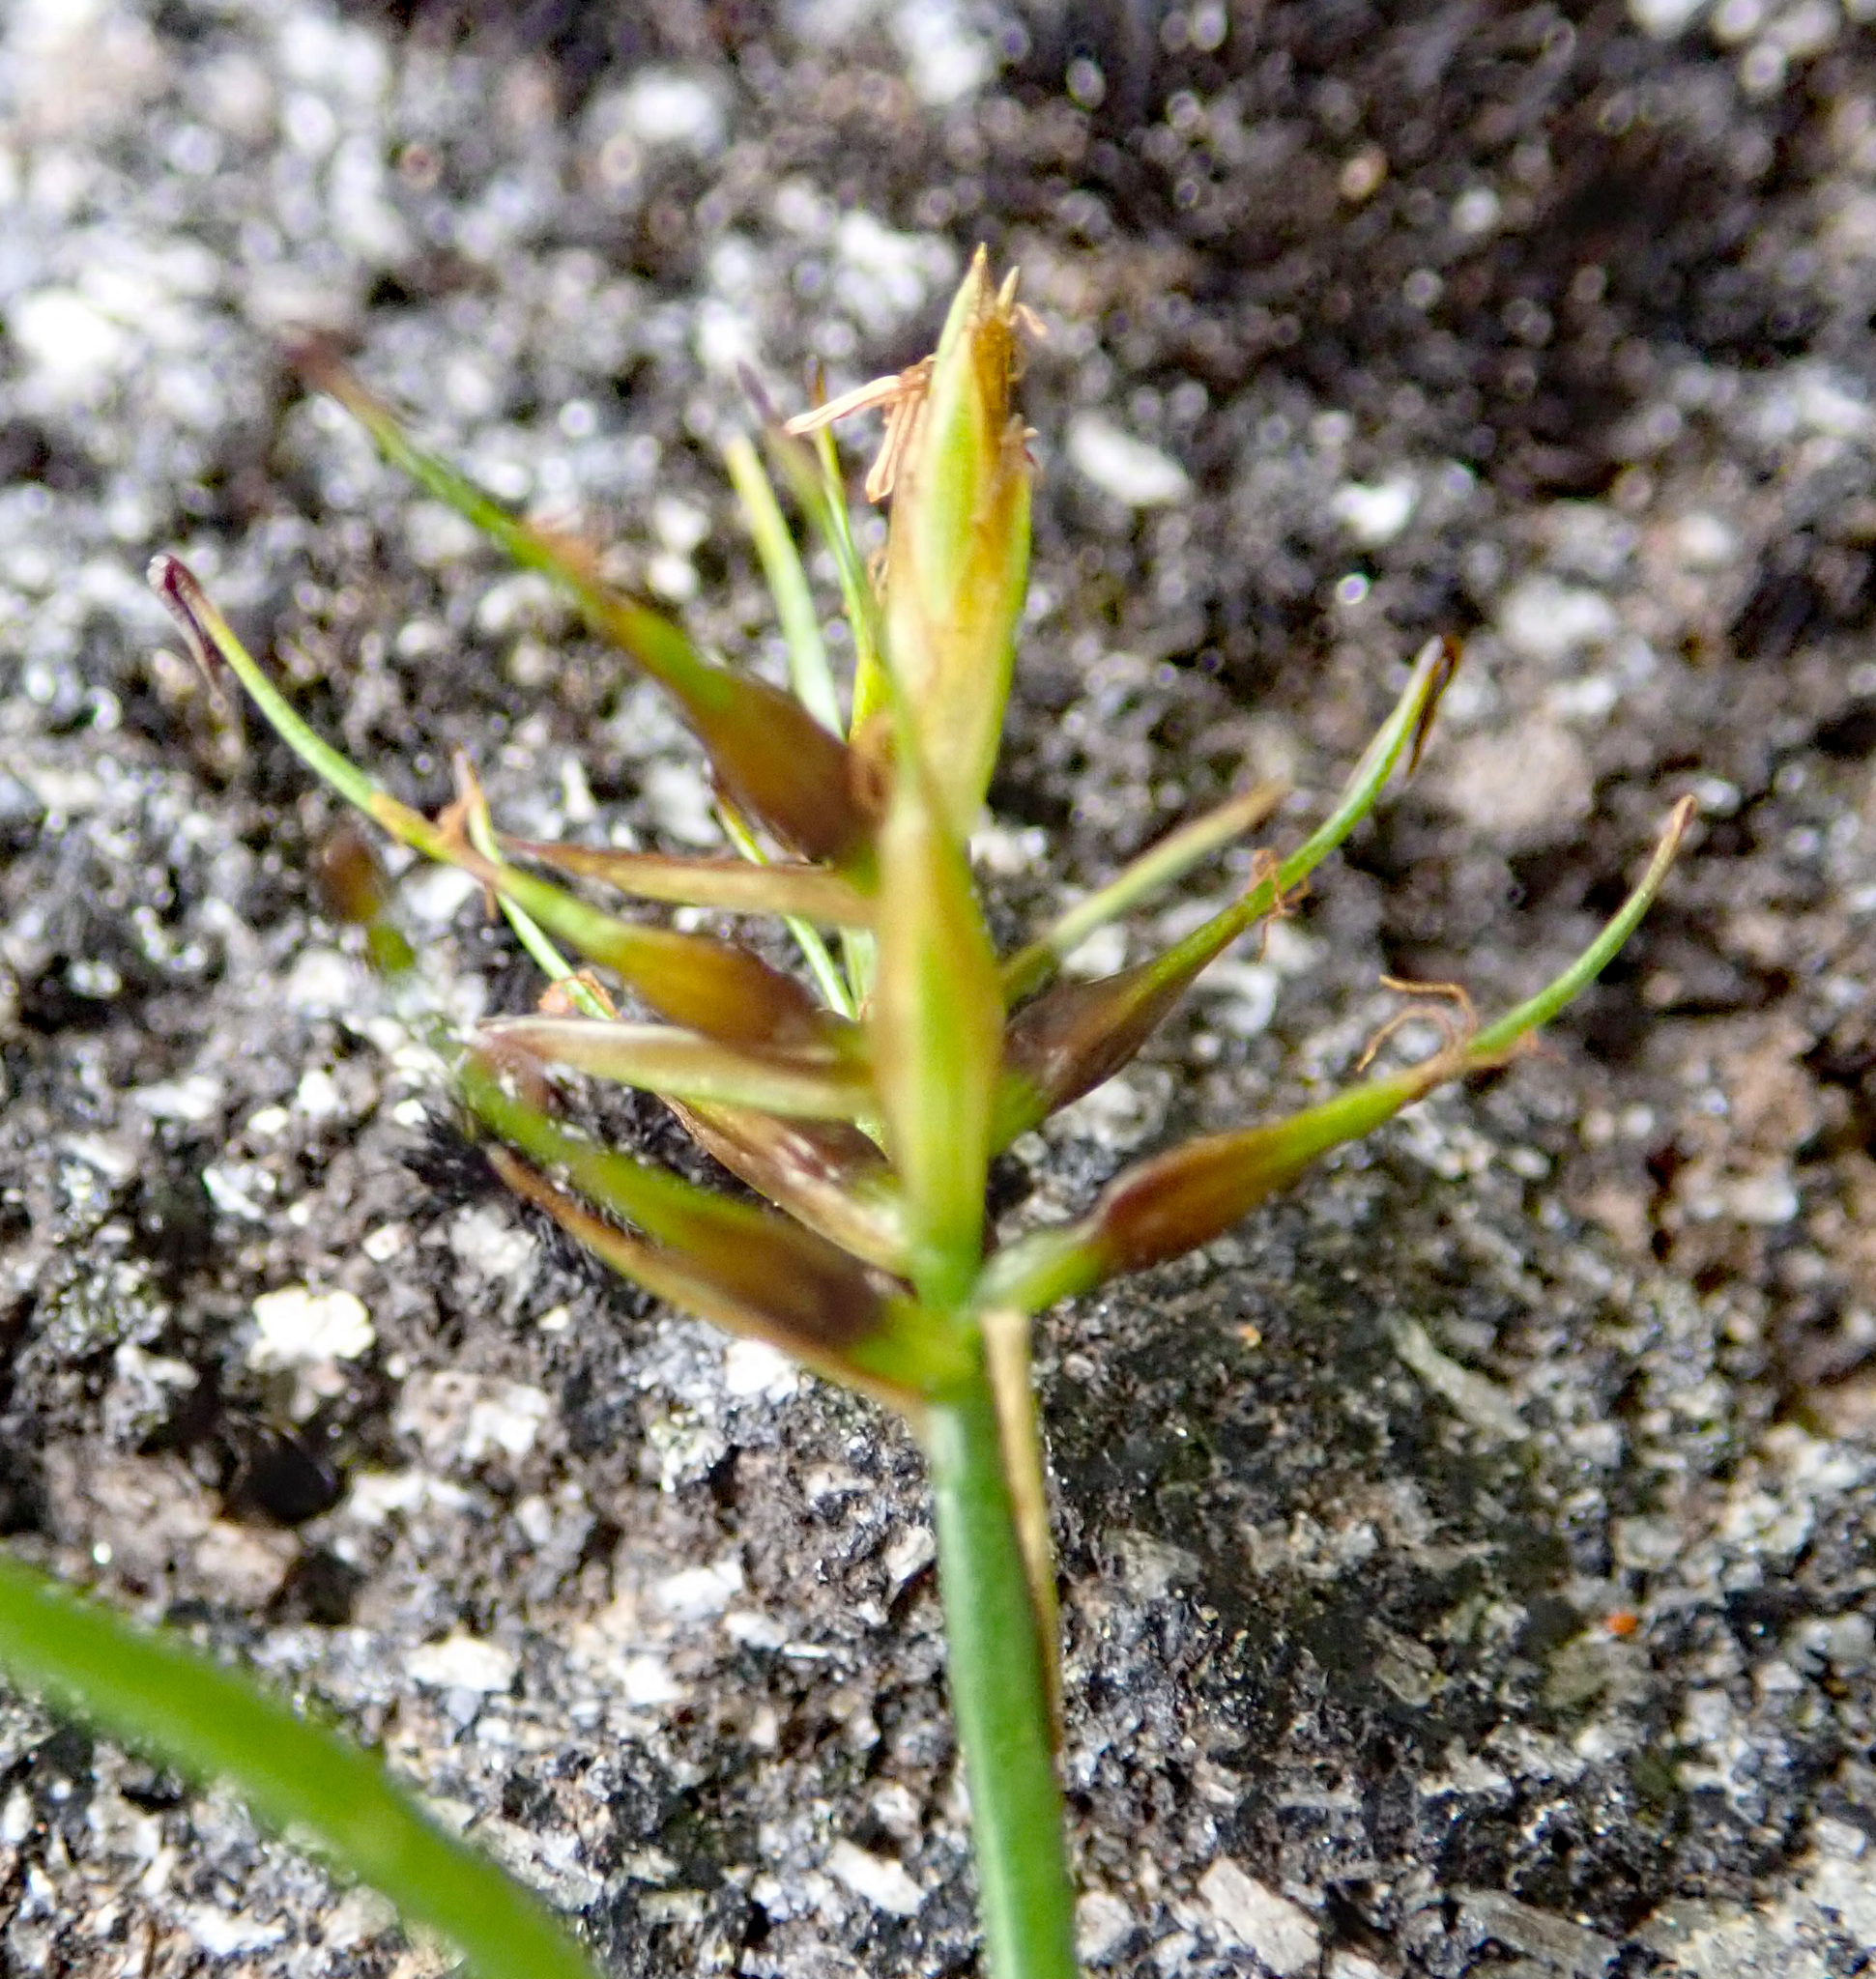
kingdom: Plantae
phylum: Tracheophyta
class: Liliopsida
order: Poales
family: Cyperaceae
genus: Carex
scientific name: Carex drucei
